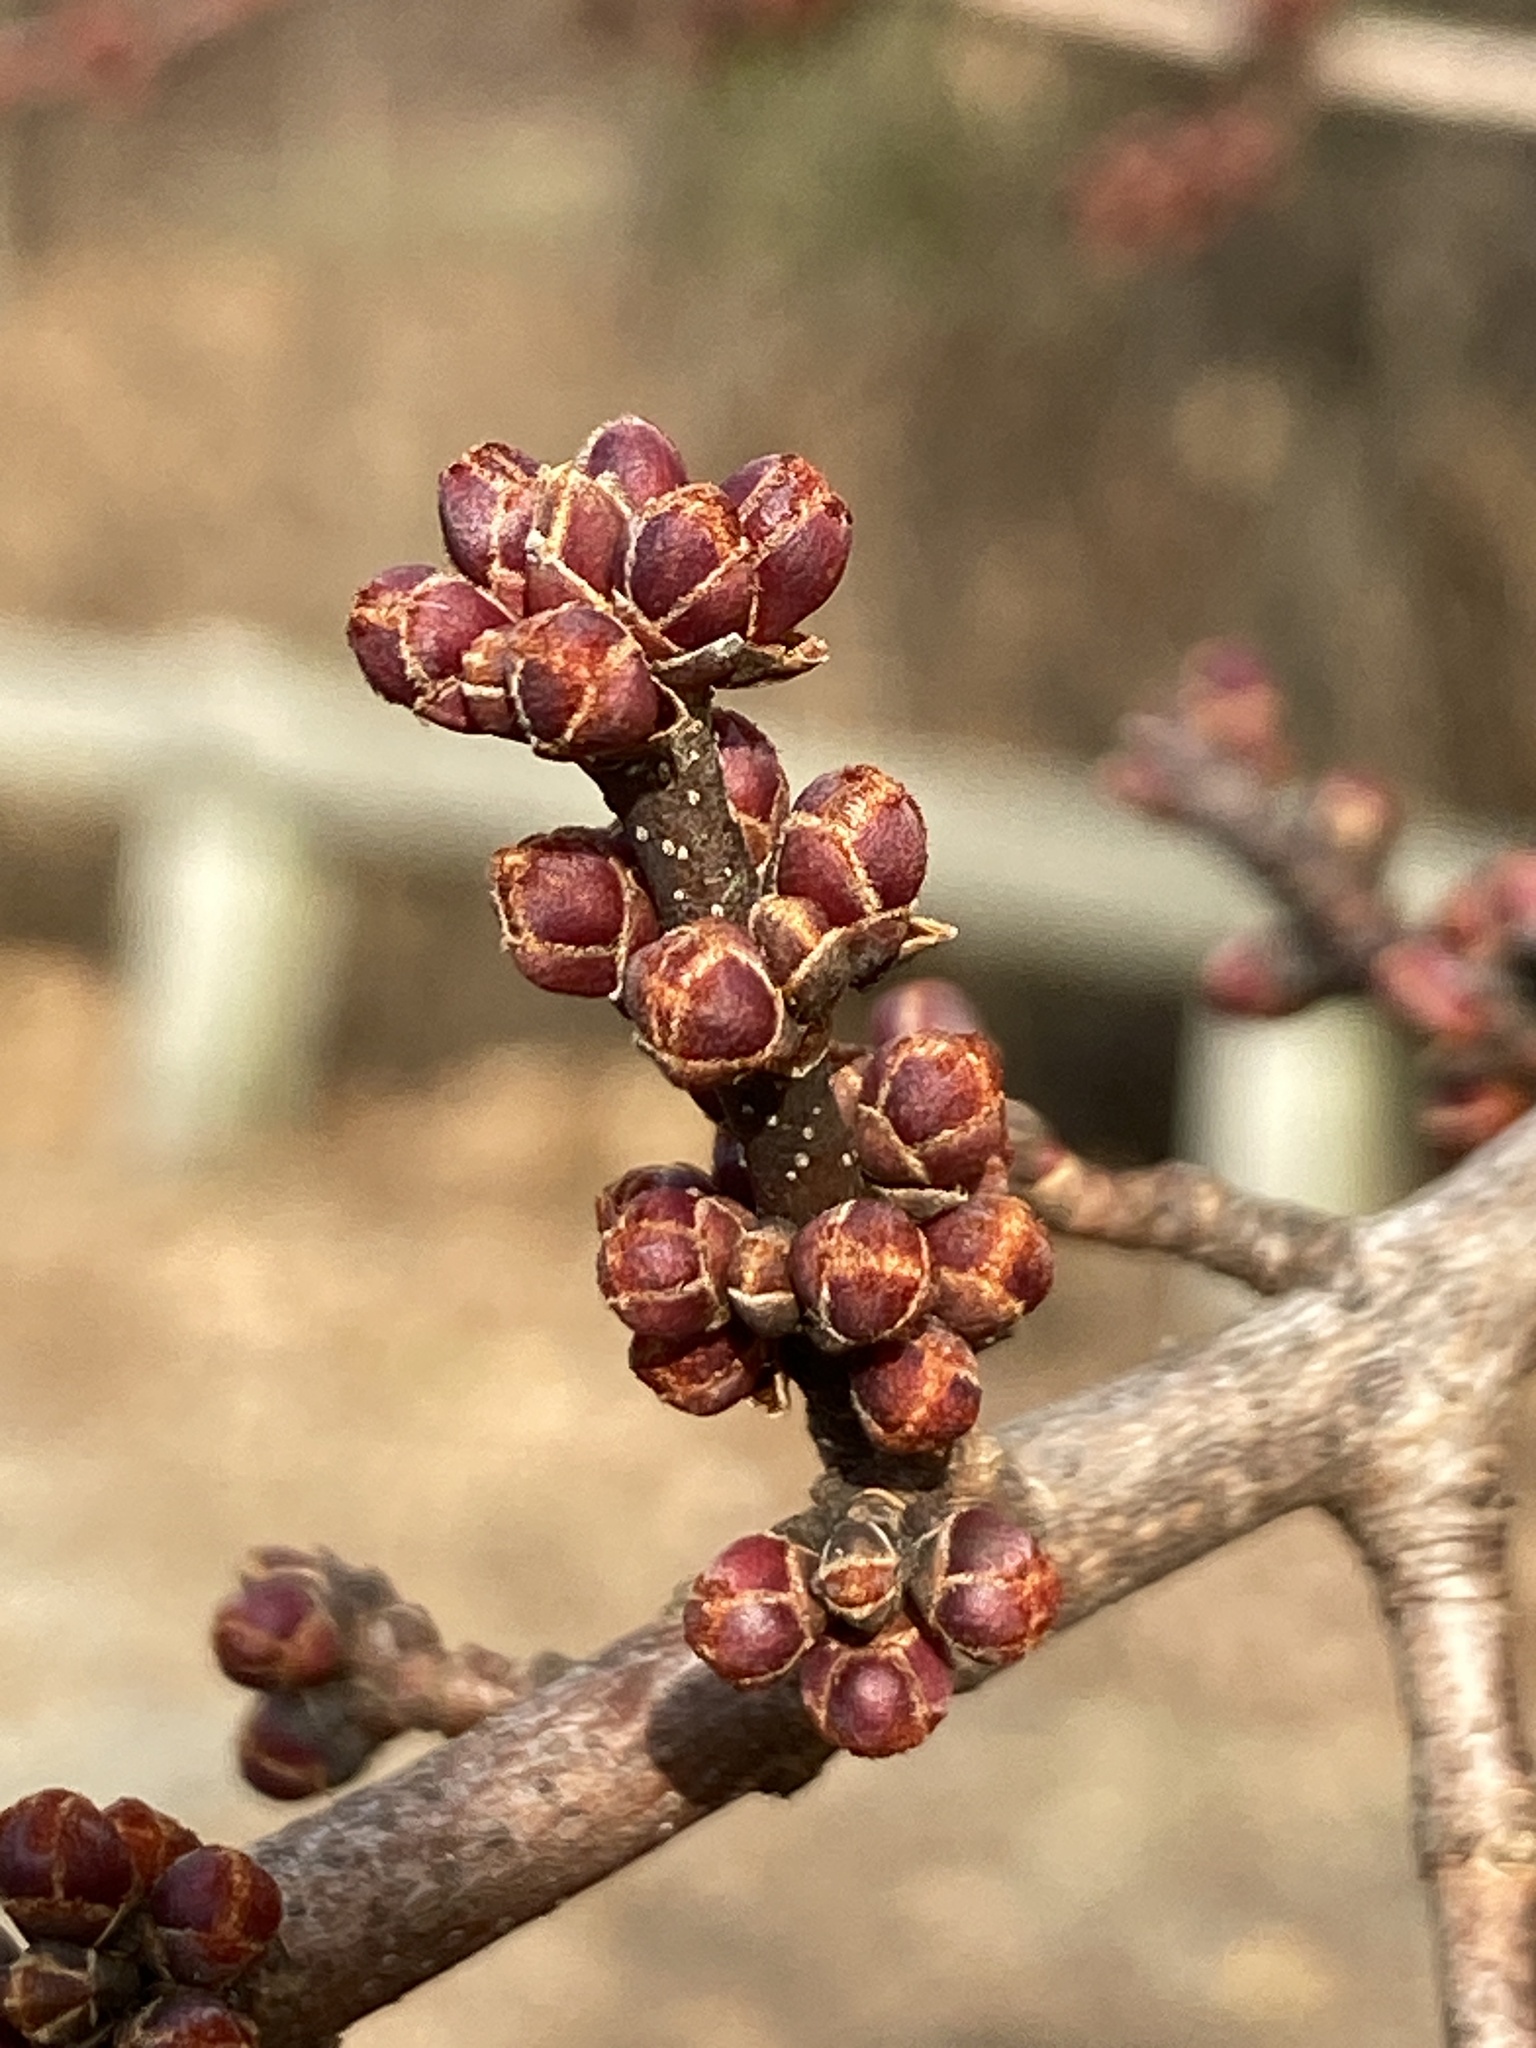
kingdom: Plantae
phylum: Tracheophyta
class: Magnoliopsida
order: Sapindales
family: Sapindaceae
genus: Acer
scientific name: Acer rubrum
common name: Red maple
